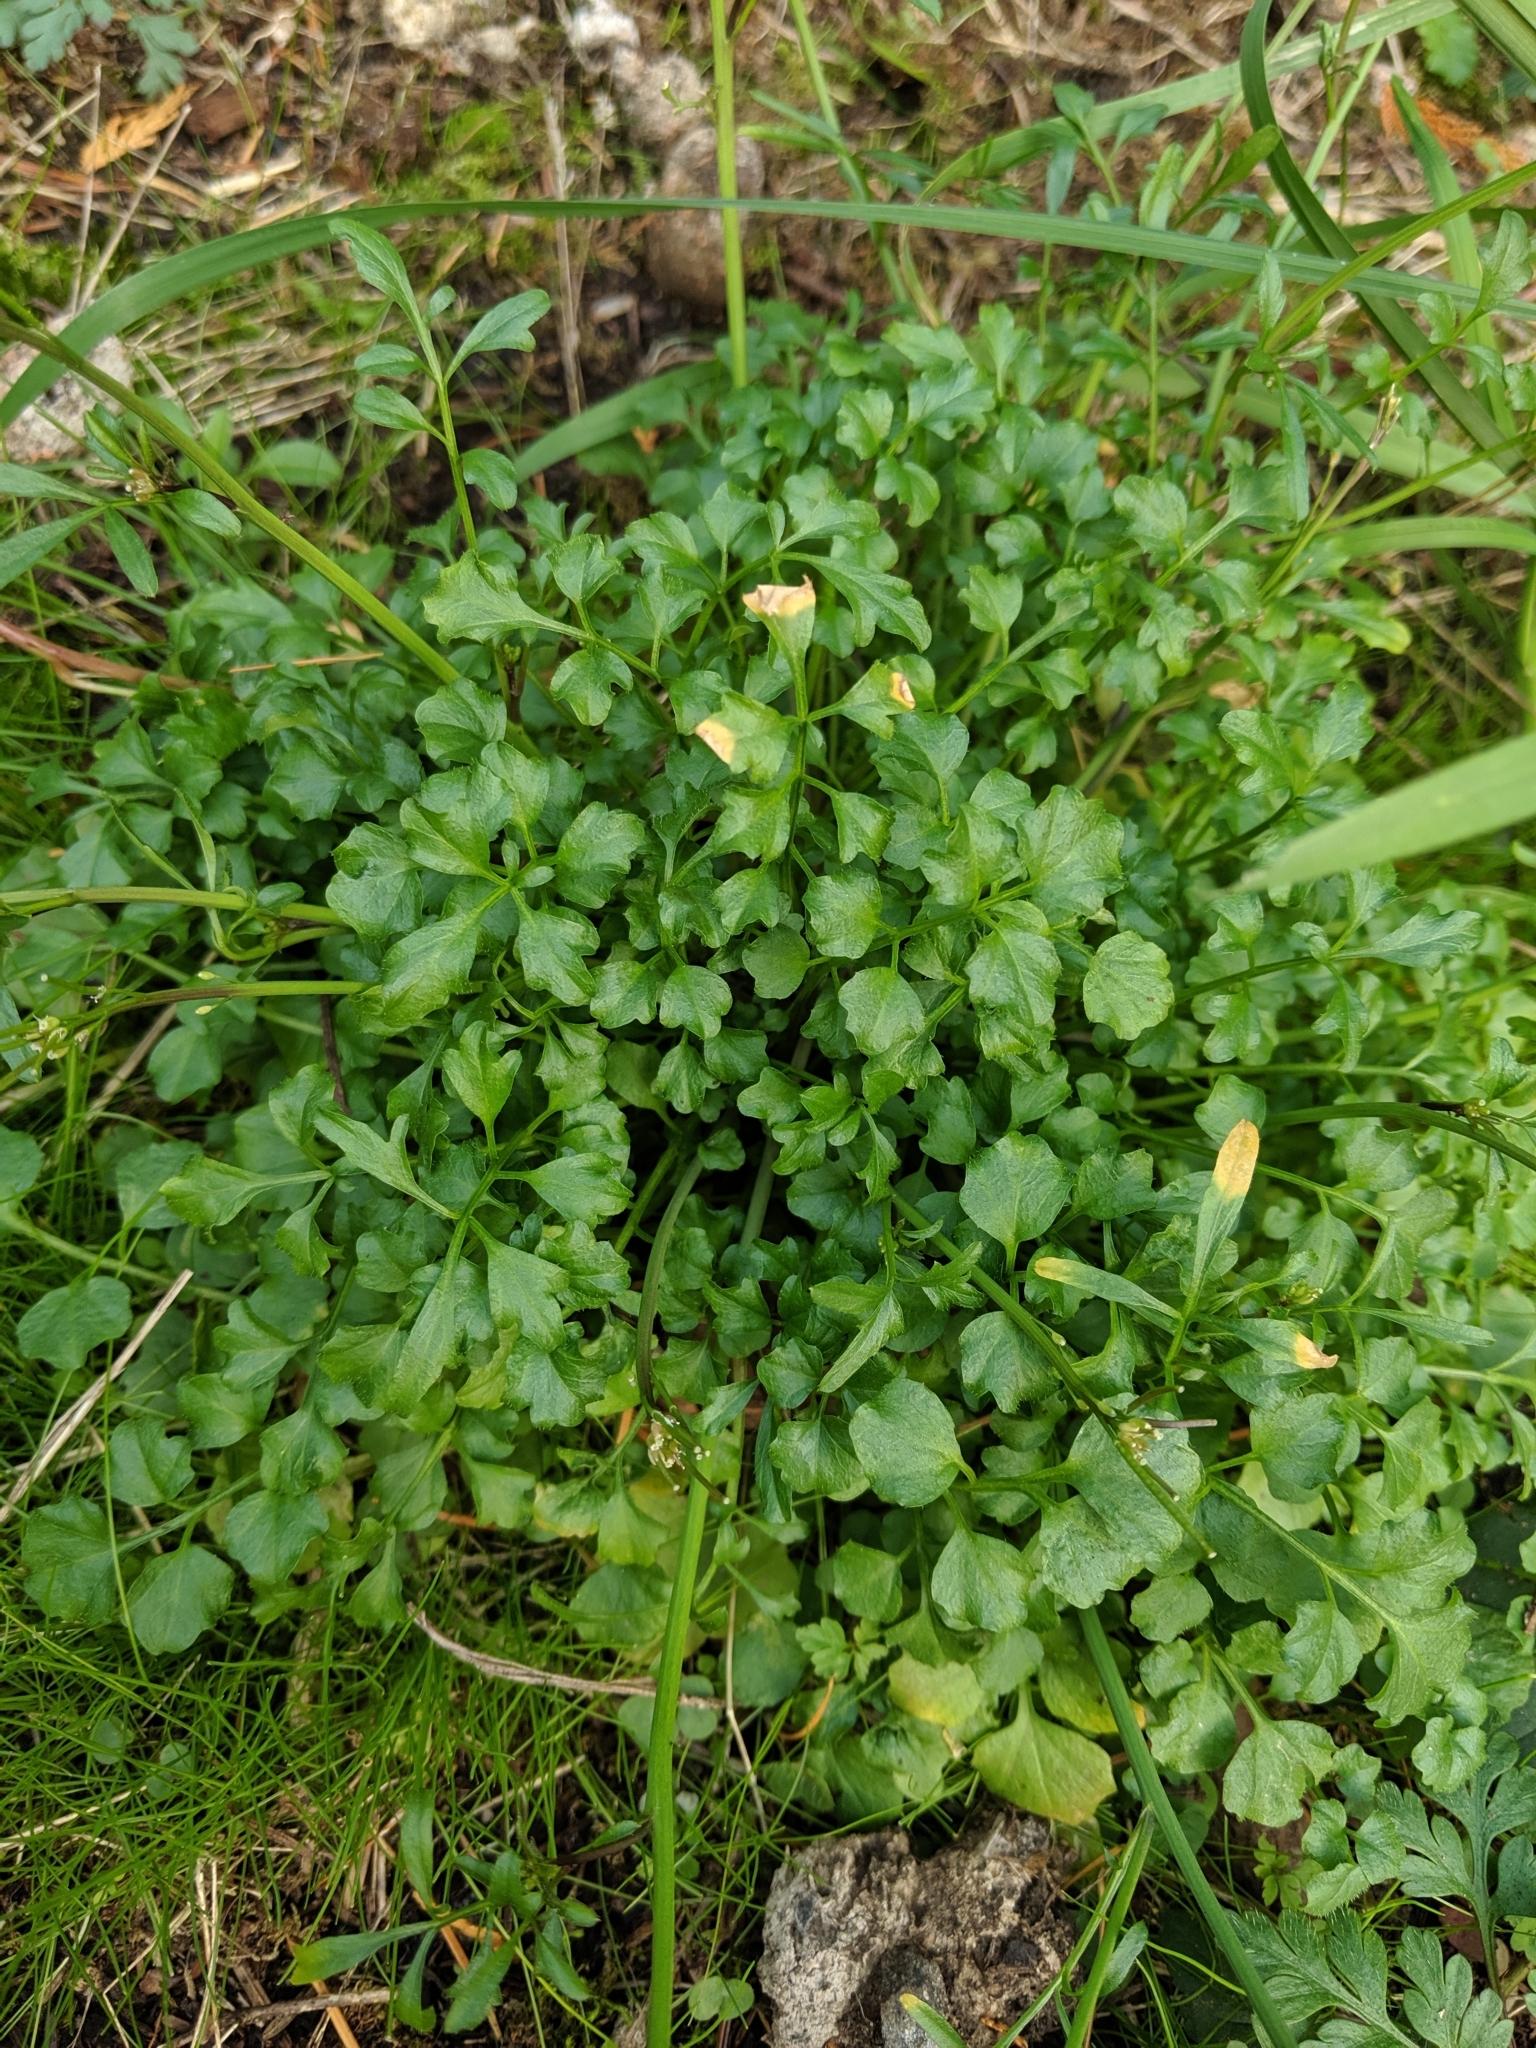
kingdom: Plantae
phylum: Tracheophyta
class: Magnoliopsida
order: Brassicales
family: Brassicaceae
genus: Cardamine
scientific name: Cardamine hirsuta
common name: Hairy bittercress
